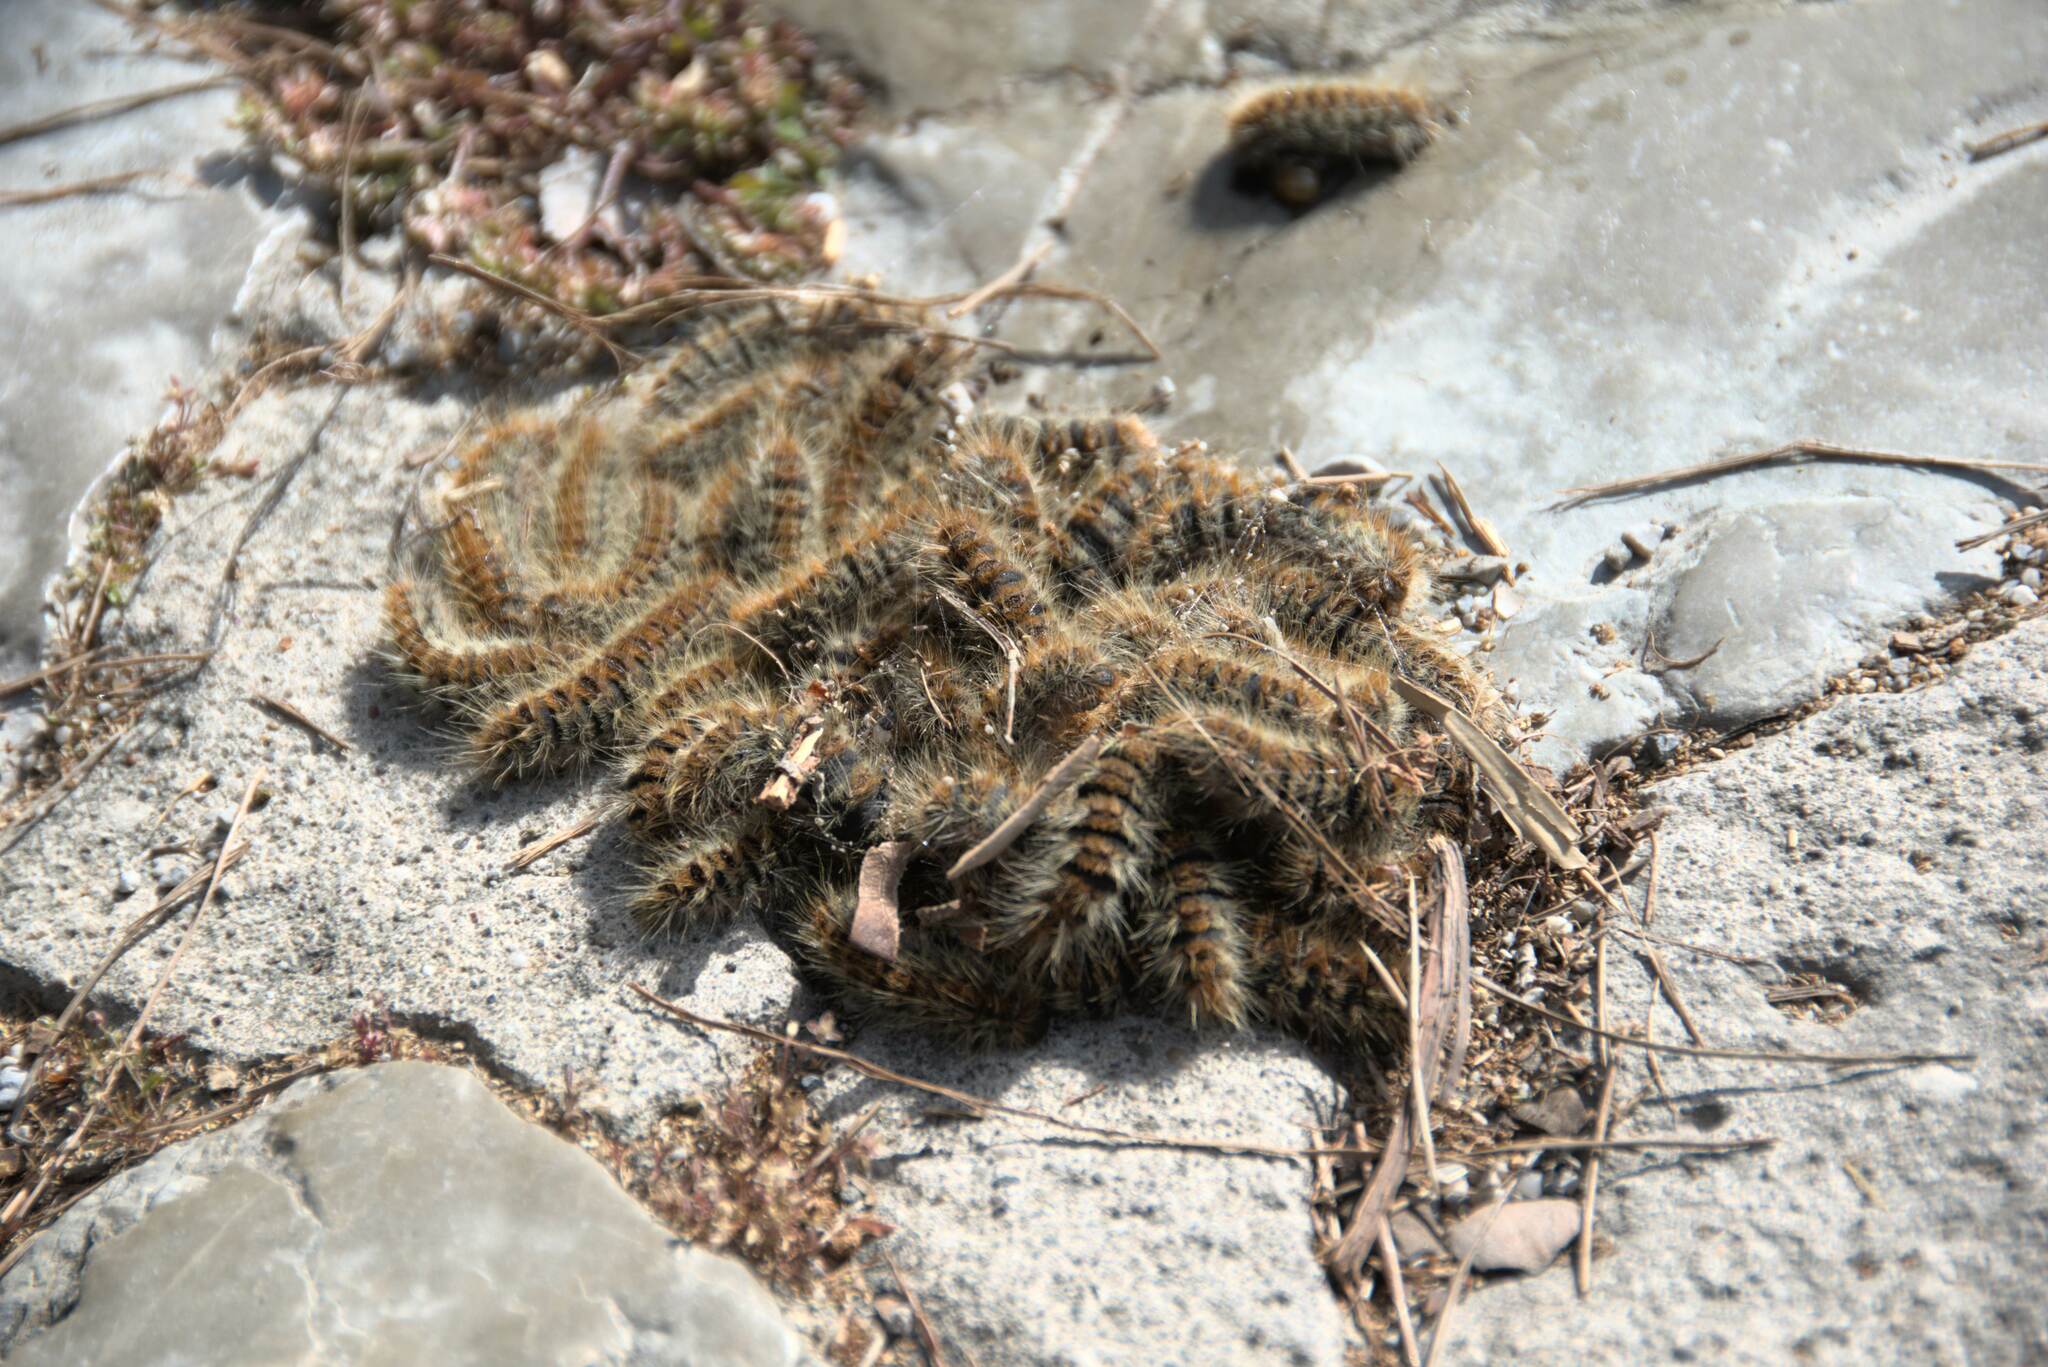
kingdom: Animalia
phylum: Arthropoda
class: Insecta
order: Lepidoptera
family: Notodontidae
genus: Thaumetopoea
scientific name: Thaumetopoea
